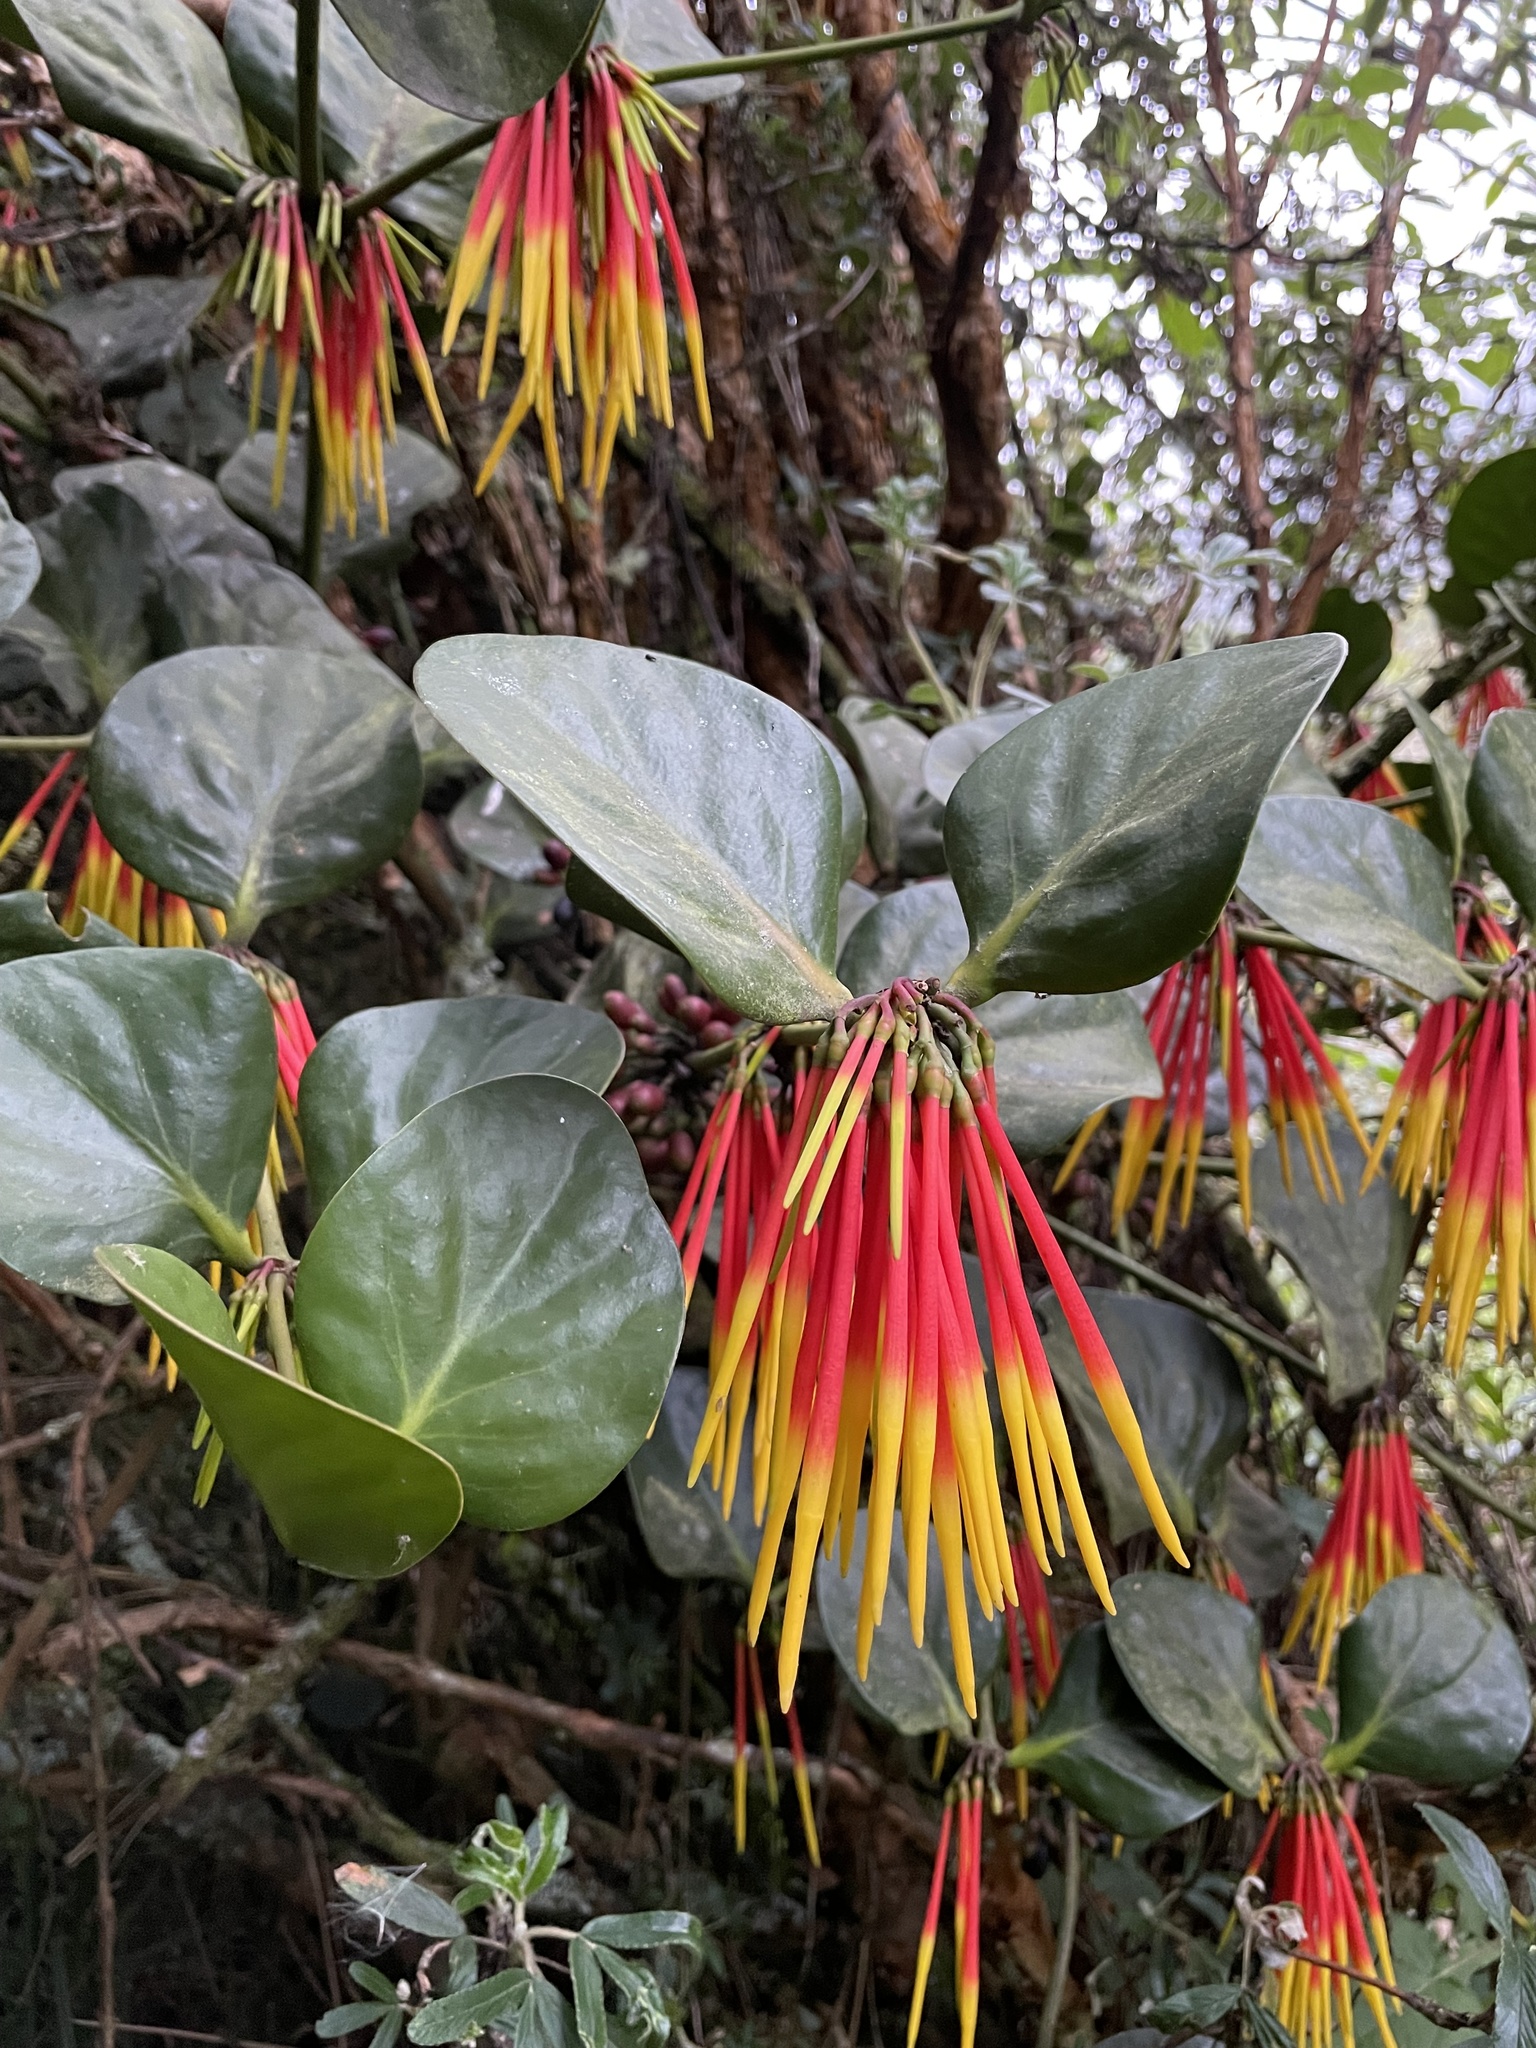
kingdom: Plantae
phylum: Tracheophyta
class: Magnoliopsida
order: Santalales
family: Loranthaceae
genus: Aetanthus
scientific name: Aetanthus nodosus
